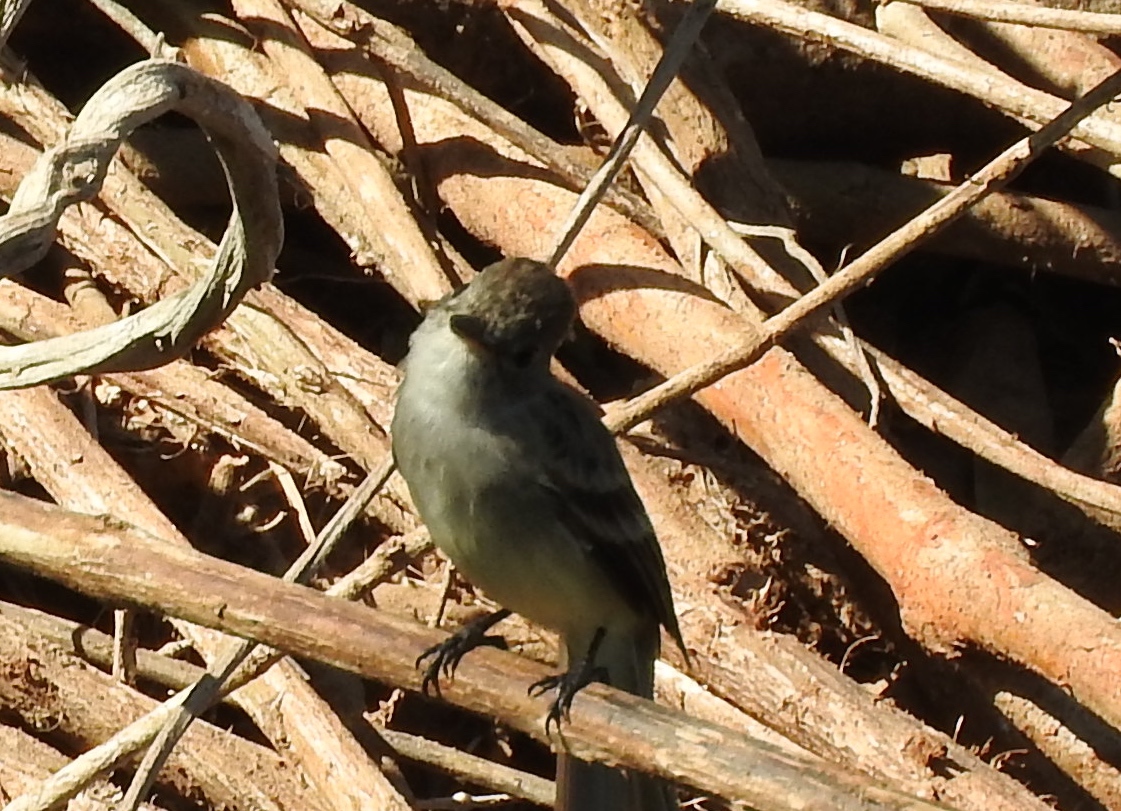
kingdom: Animalia
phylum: Chordata
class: Aves
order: Passeriformes
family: Tyrannidae
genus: Myiarchus
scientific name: Myiarchus
